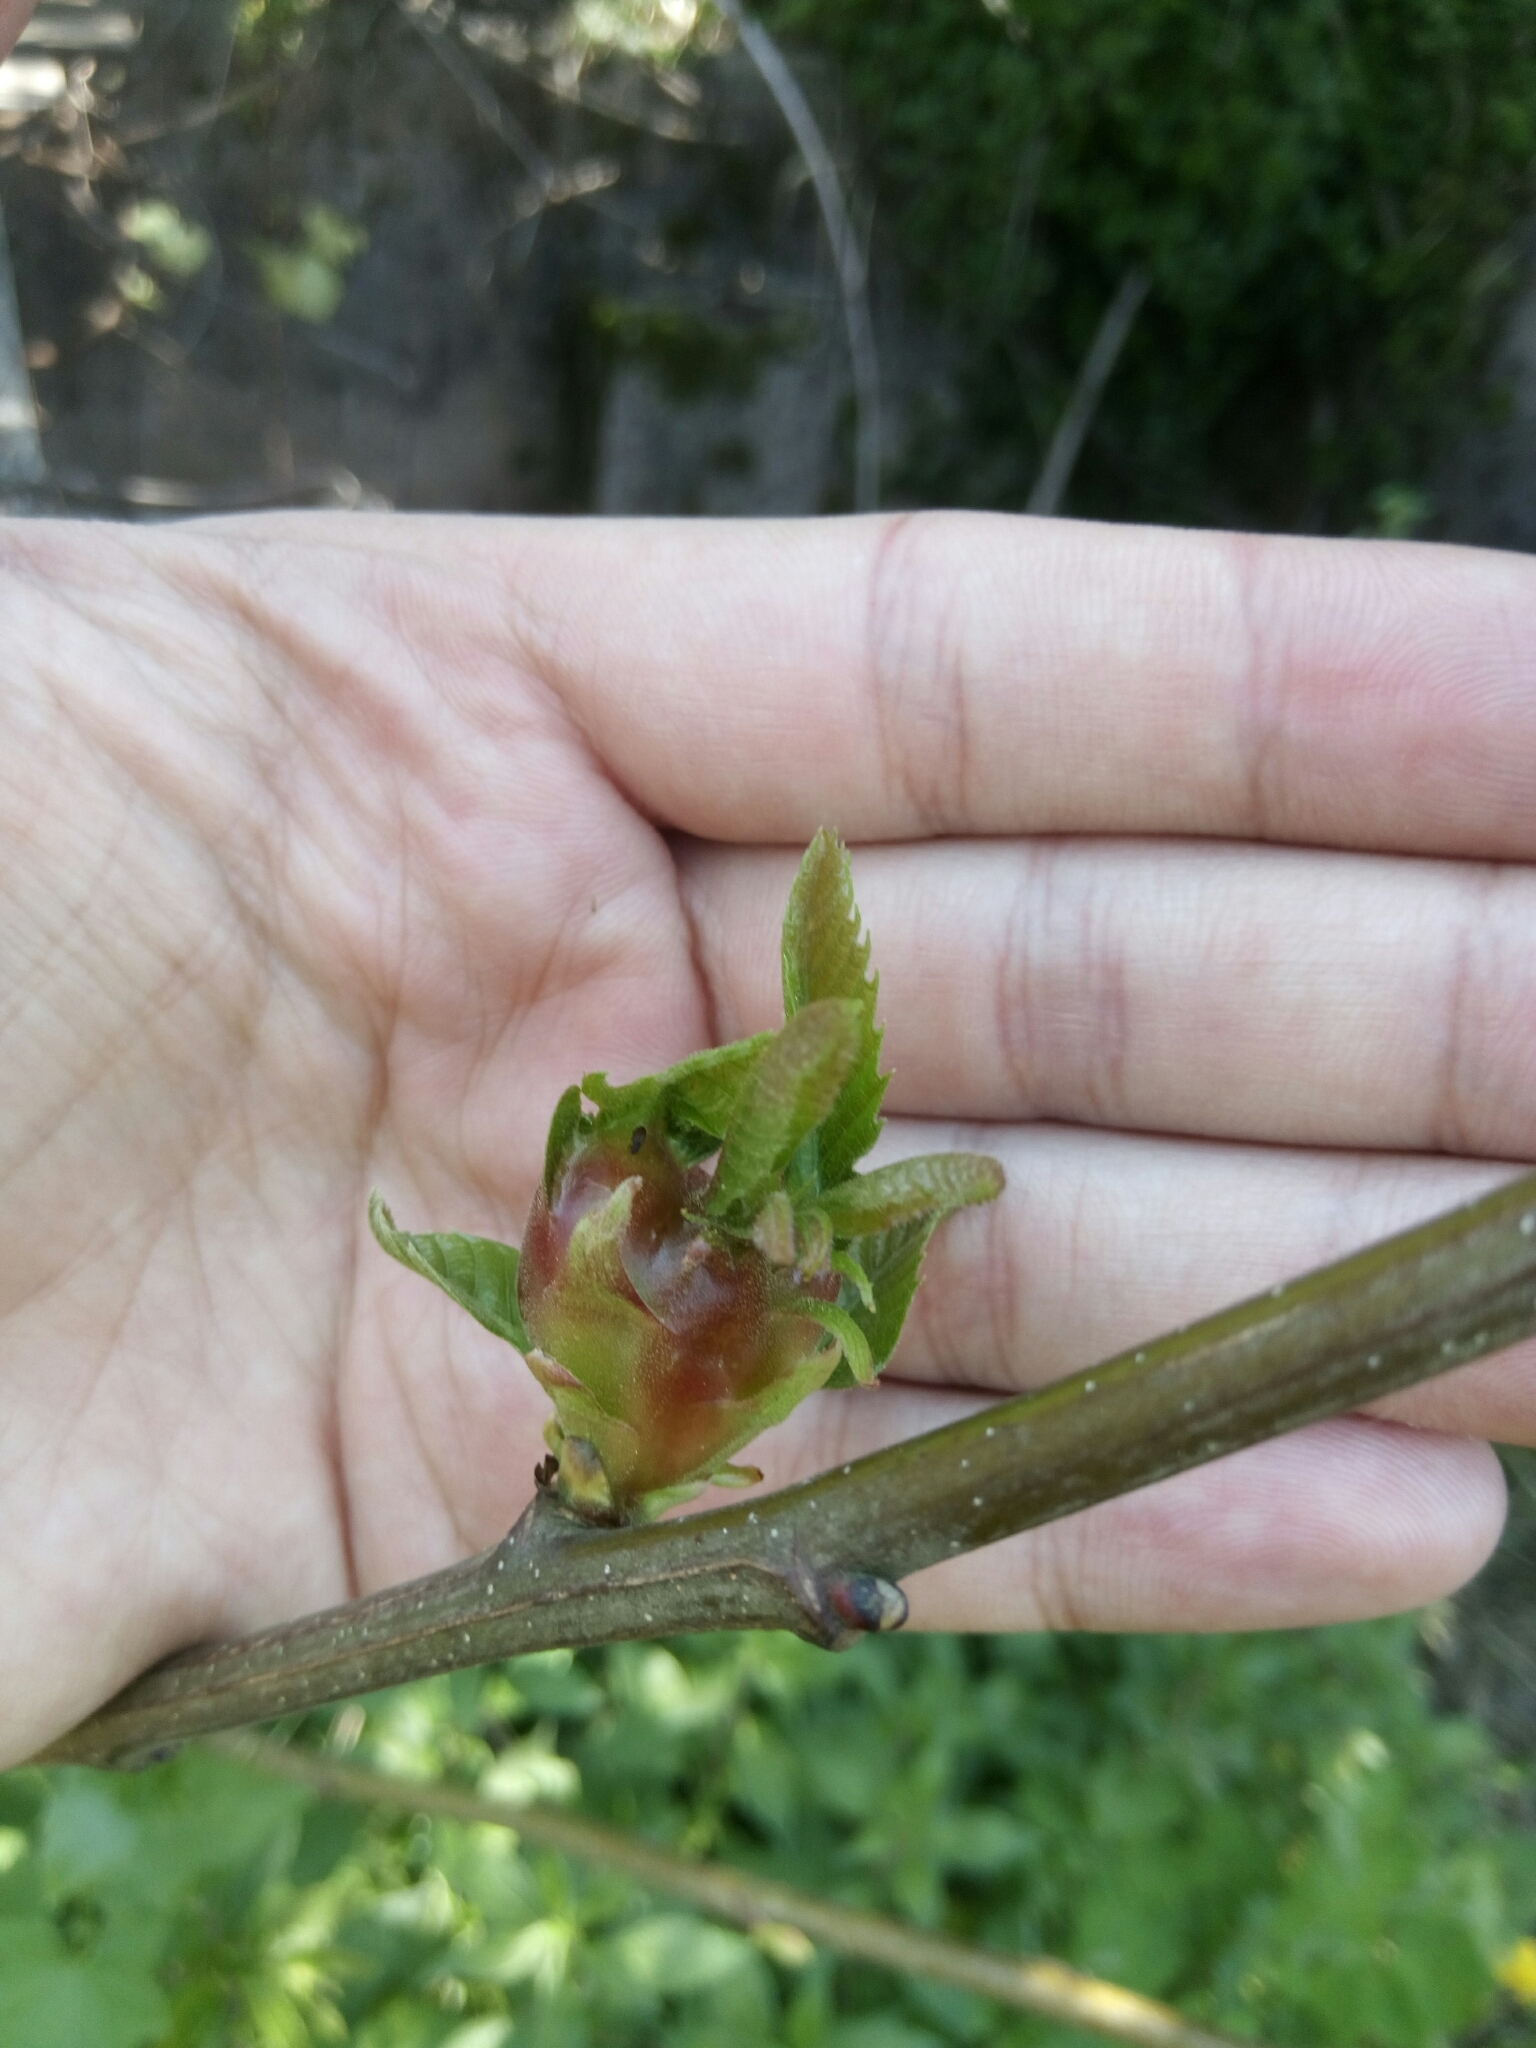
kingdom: Animalia
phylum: Arthropoda
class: Insecta
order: Hymenoptera
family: Cynipidae
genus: Dryocosmus
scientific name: Dryocosmus kuriphilus
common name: Asian chestnut gall wasp
